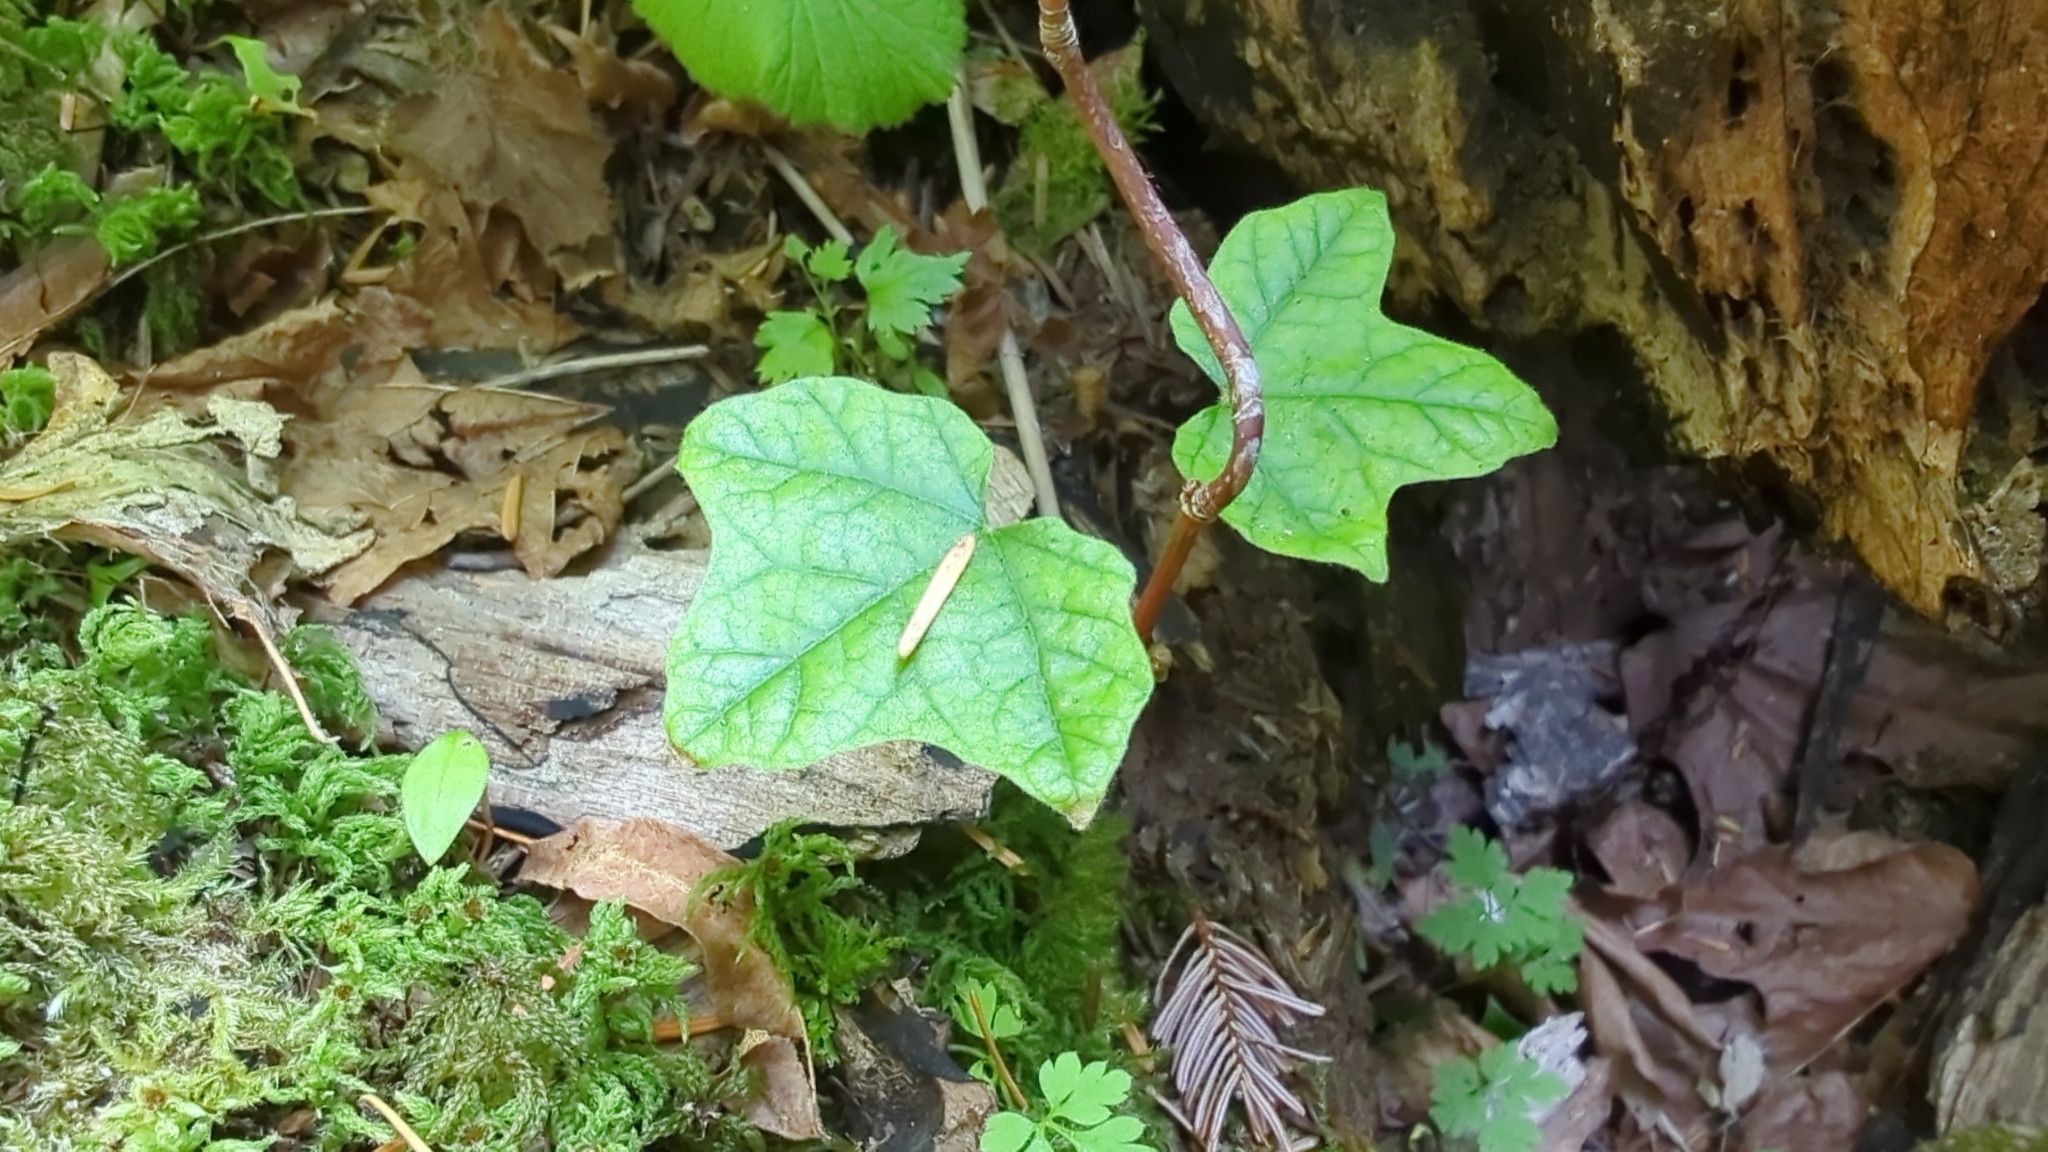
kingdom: Plantae
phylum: Tracheophyta
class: Magnoliopsida
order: Apiales
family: Araliaceae
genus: Hedera
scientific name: Hedera helix
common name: Ivy
